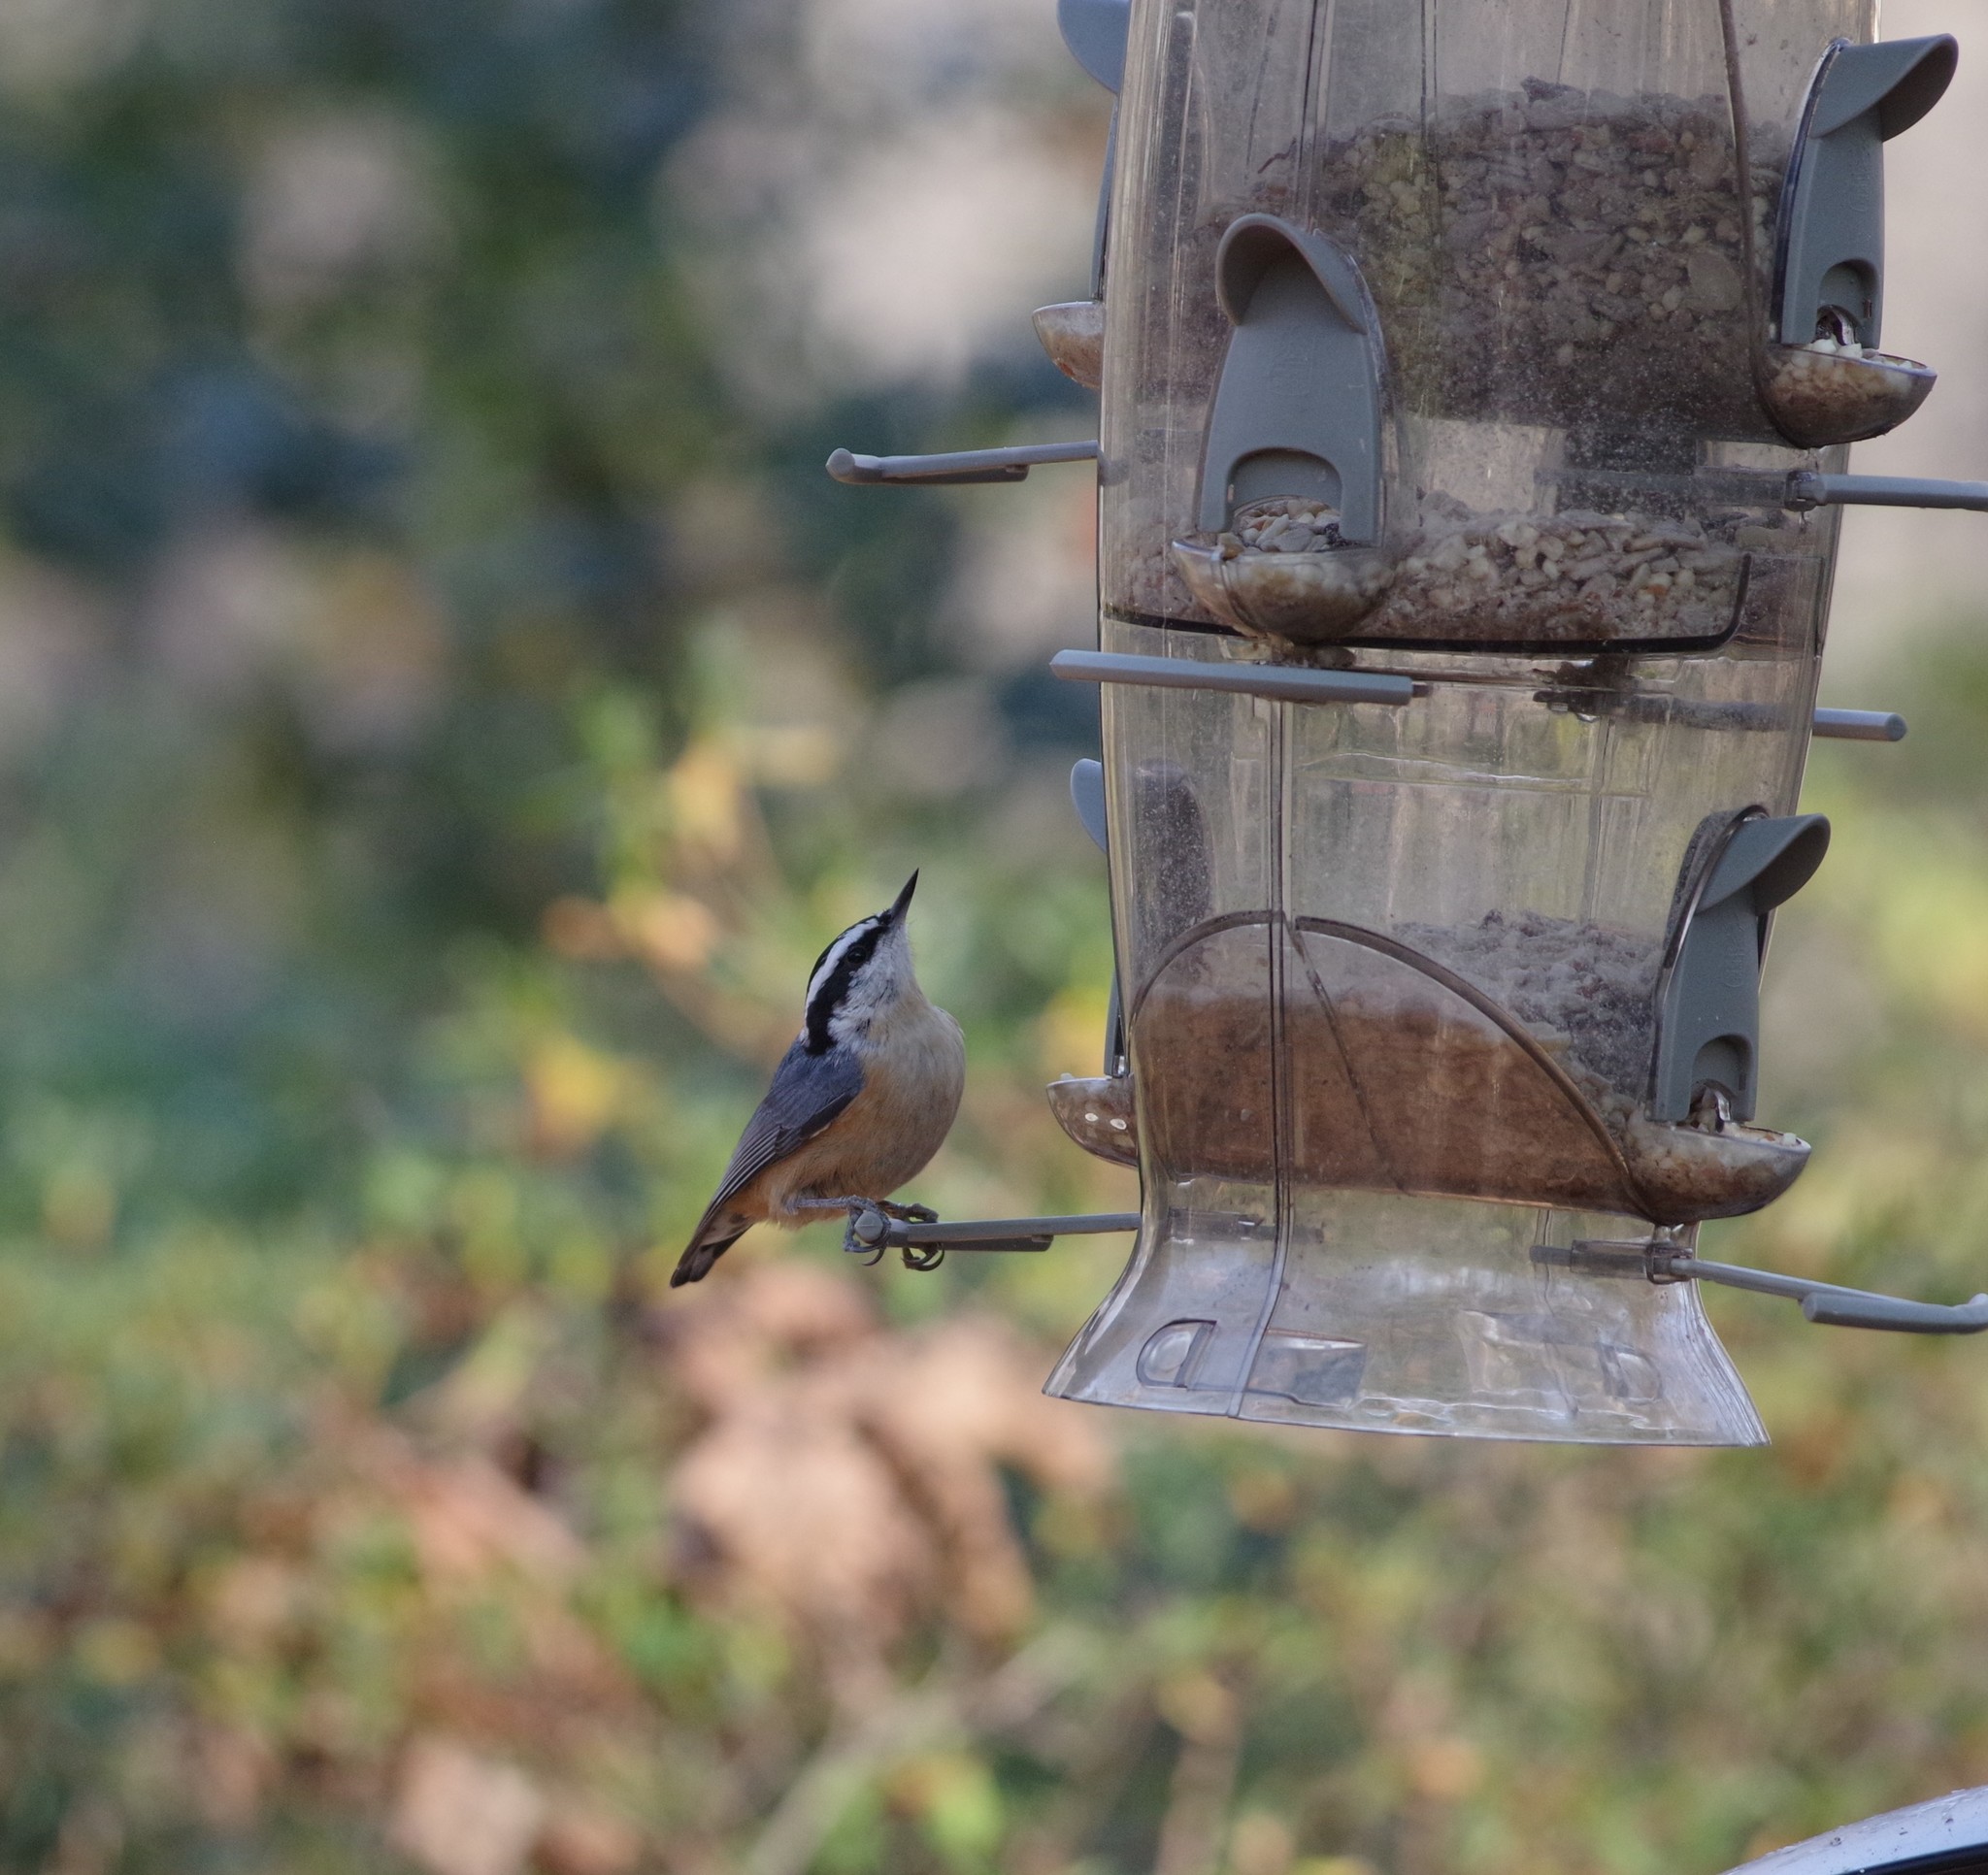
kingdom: Animalia
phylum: Chordata
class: Aves
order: Passeriformes
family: Sittidae
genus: Sitta
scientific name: Sitta canadensis
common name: Red-breasted nuthatch
